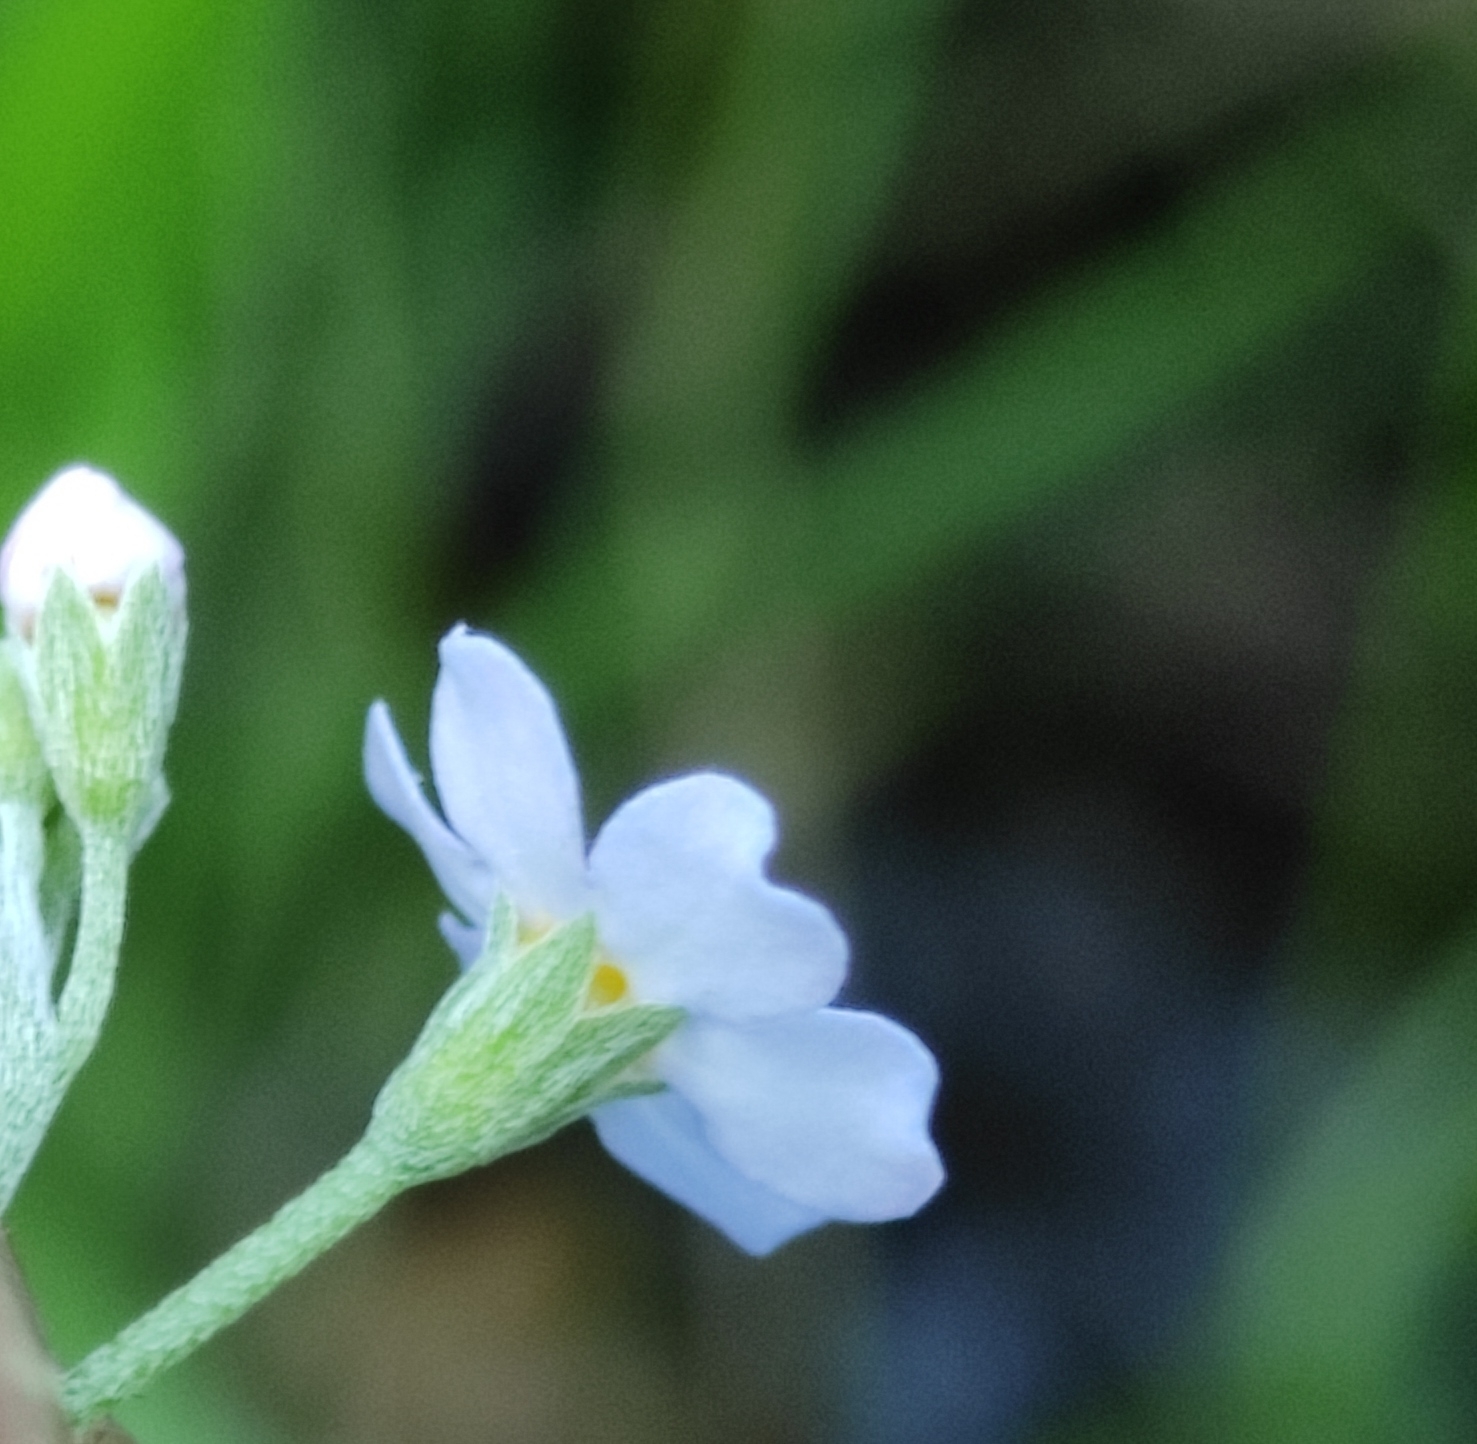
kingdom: Plantae
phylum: Tracheophyta
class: Magnoliopsida
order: Boraginales
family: Boraginaceae
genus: Myosotis
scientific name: Myosotis scorpioides
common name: Water forget-me-not
